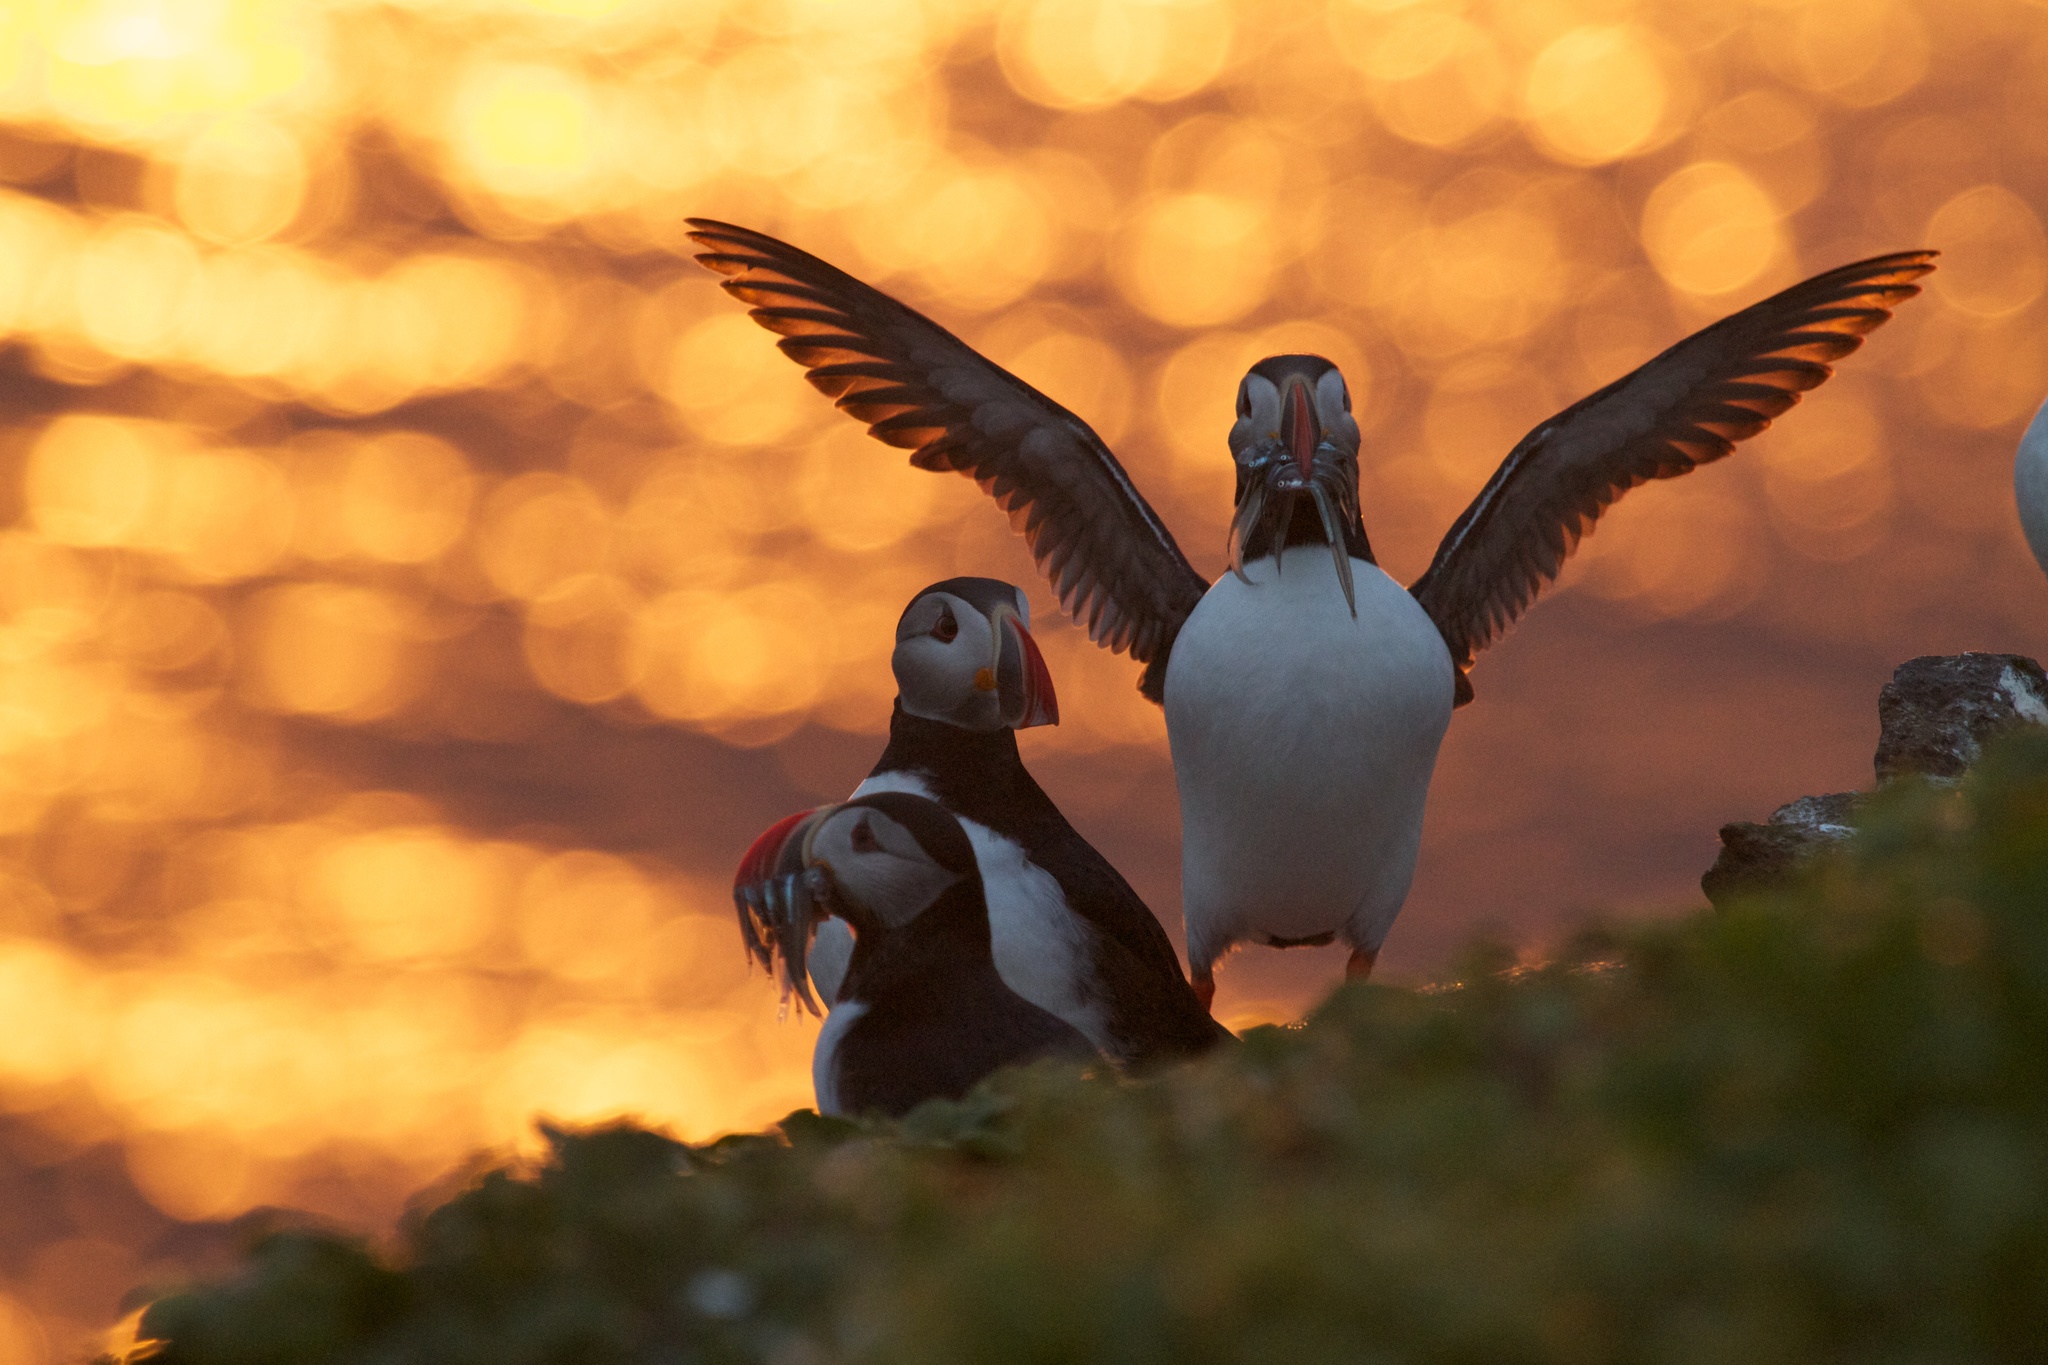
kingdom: Animalia
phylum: Chordata
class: Aves
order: Charadriiformes
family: Alcidae
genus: Fratercula
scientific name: Fratercula arctica
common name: Atlantic puffin
